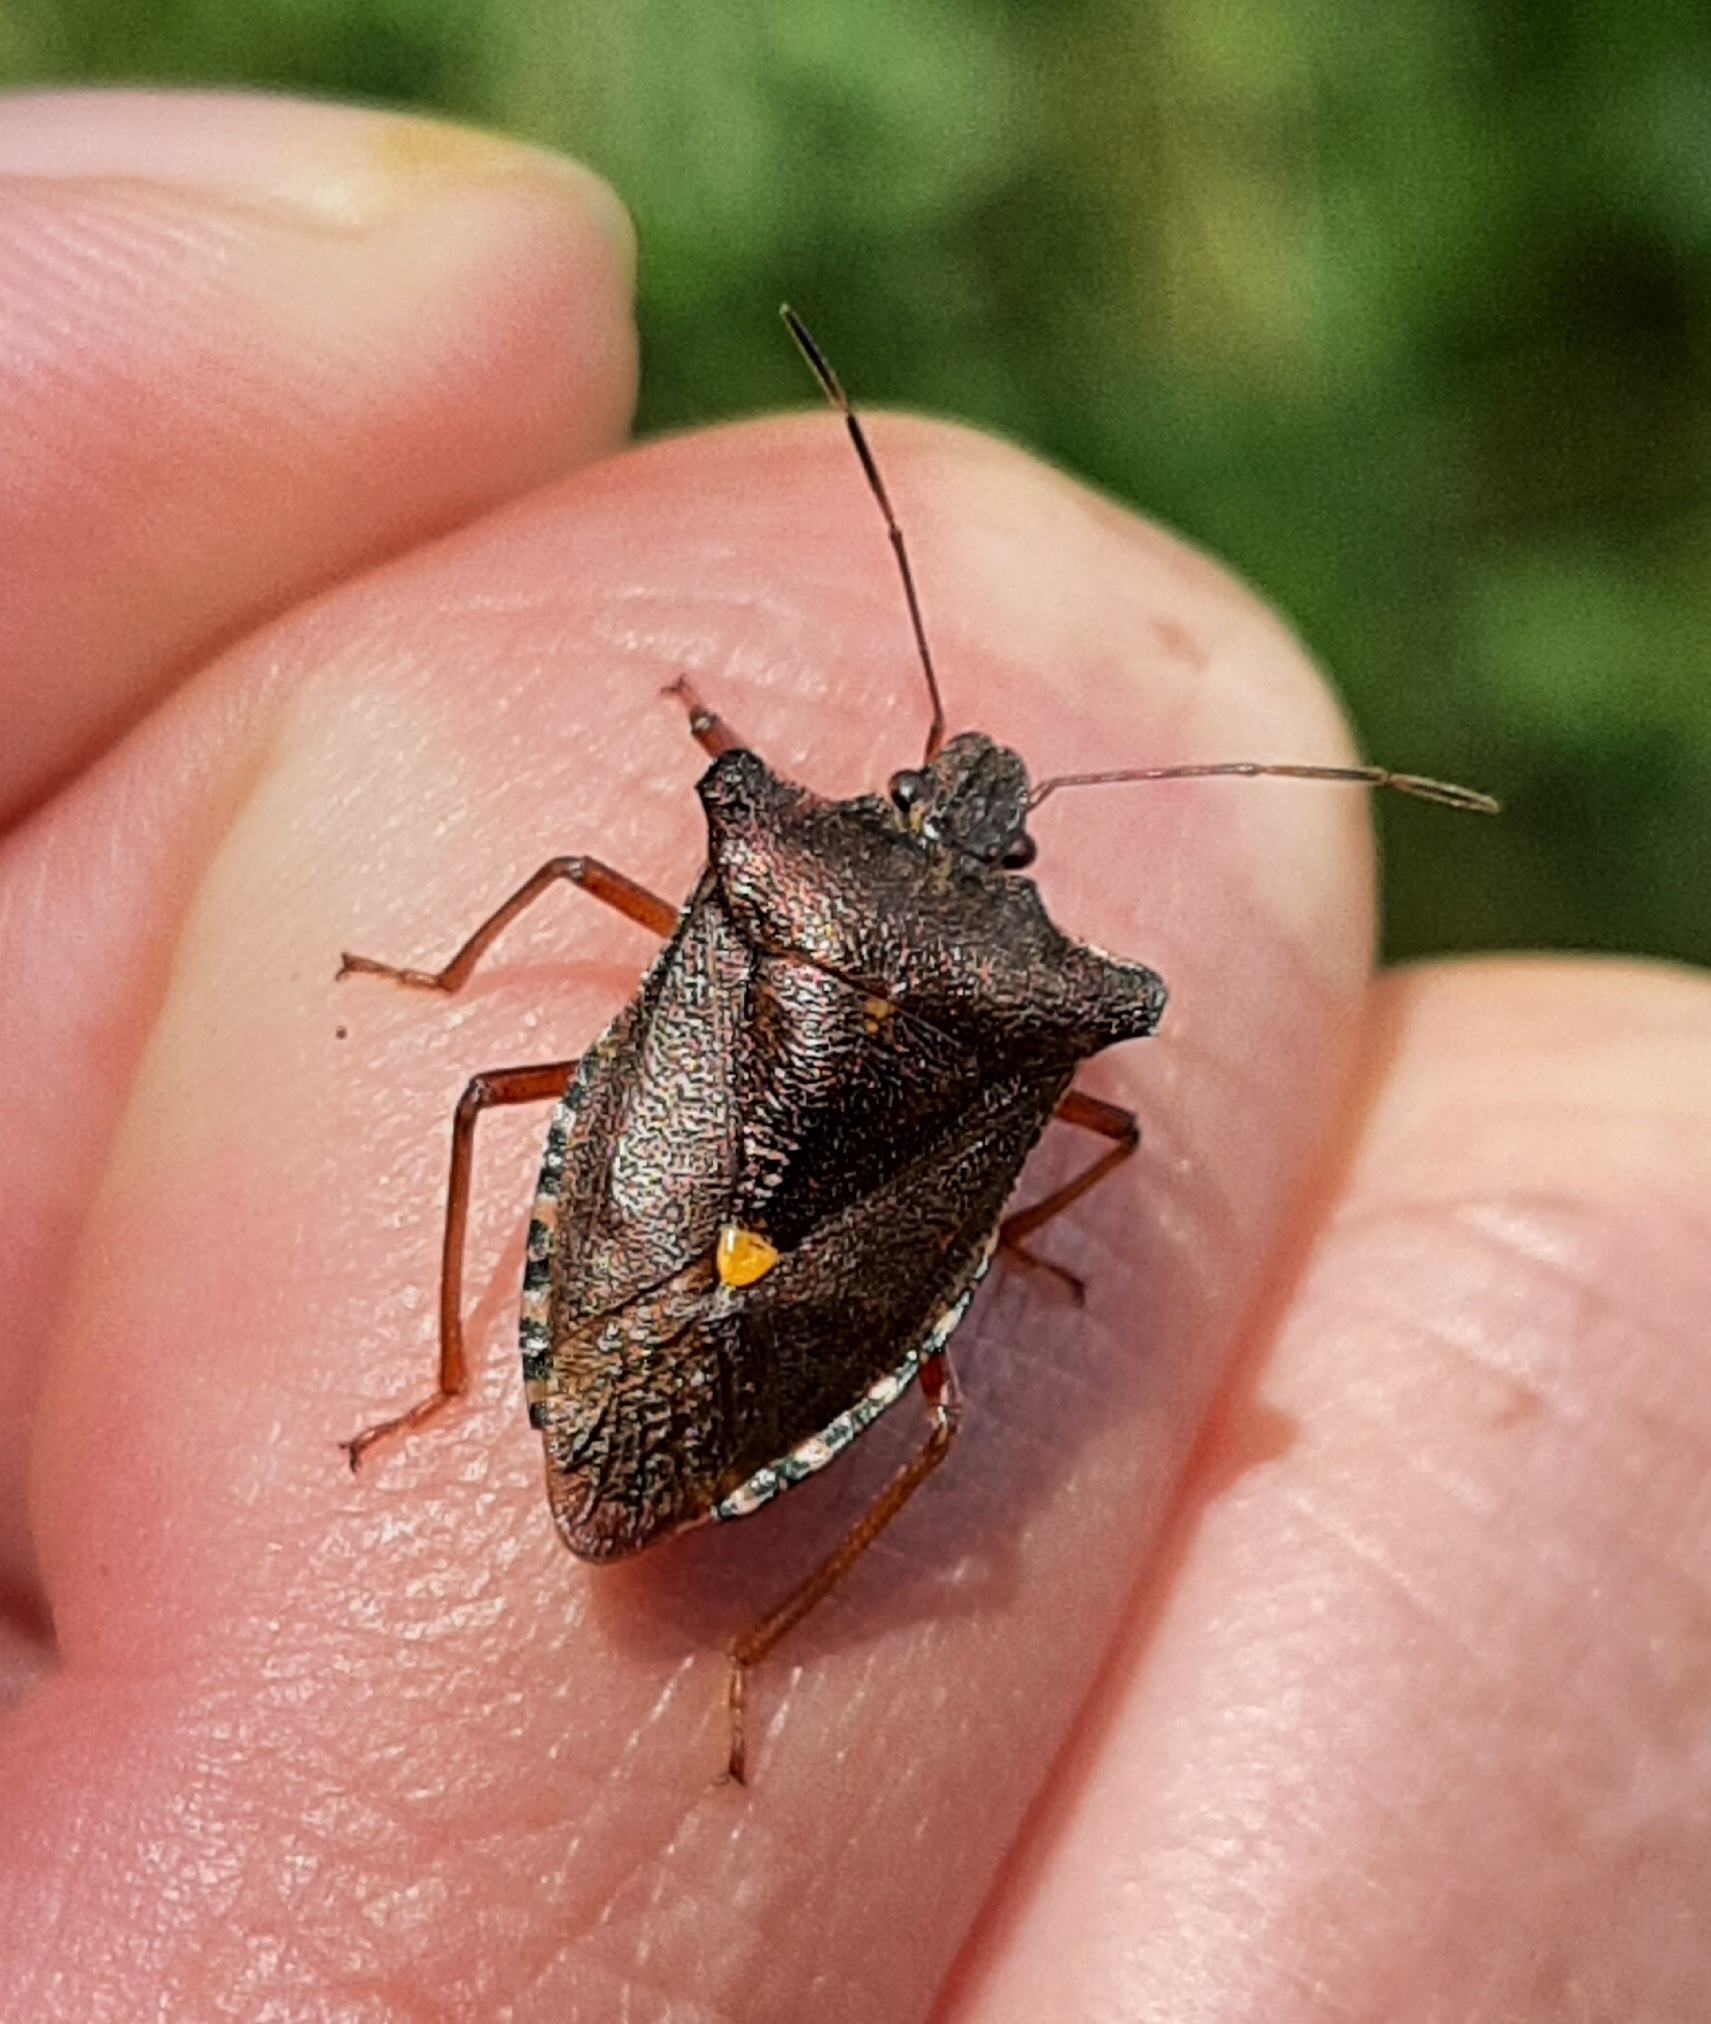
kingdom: Animalia
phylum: Arthropoda
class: Insecta
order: Hemiptera
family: Pentatomidae
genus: Pentatoma
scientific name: Pentatoma rufipes
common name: Forest bug
